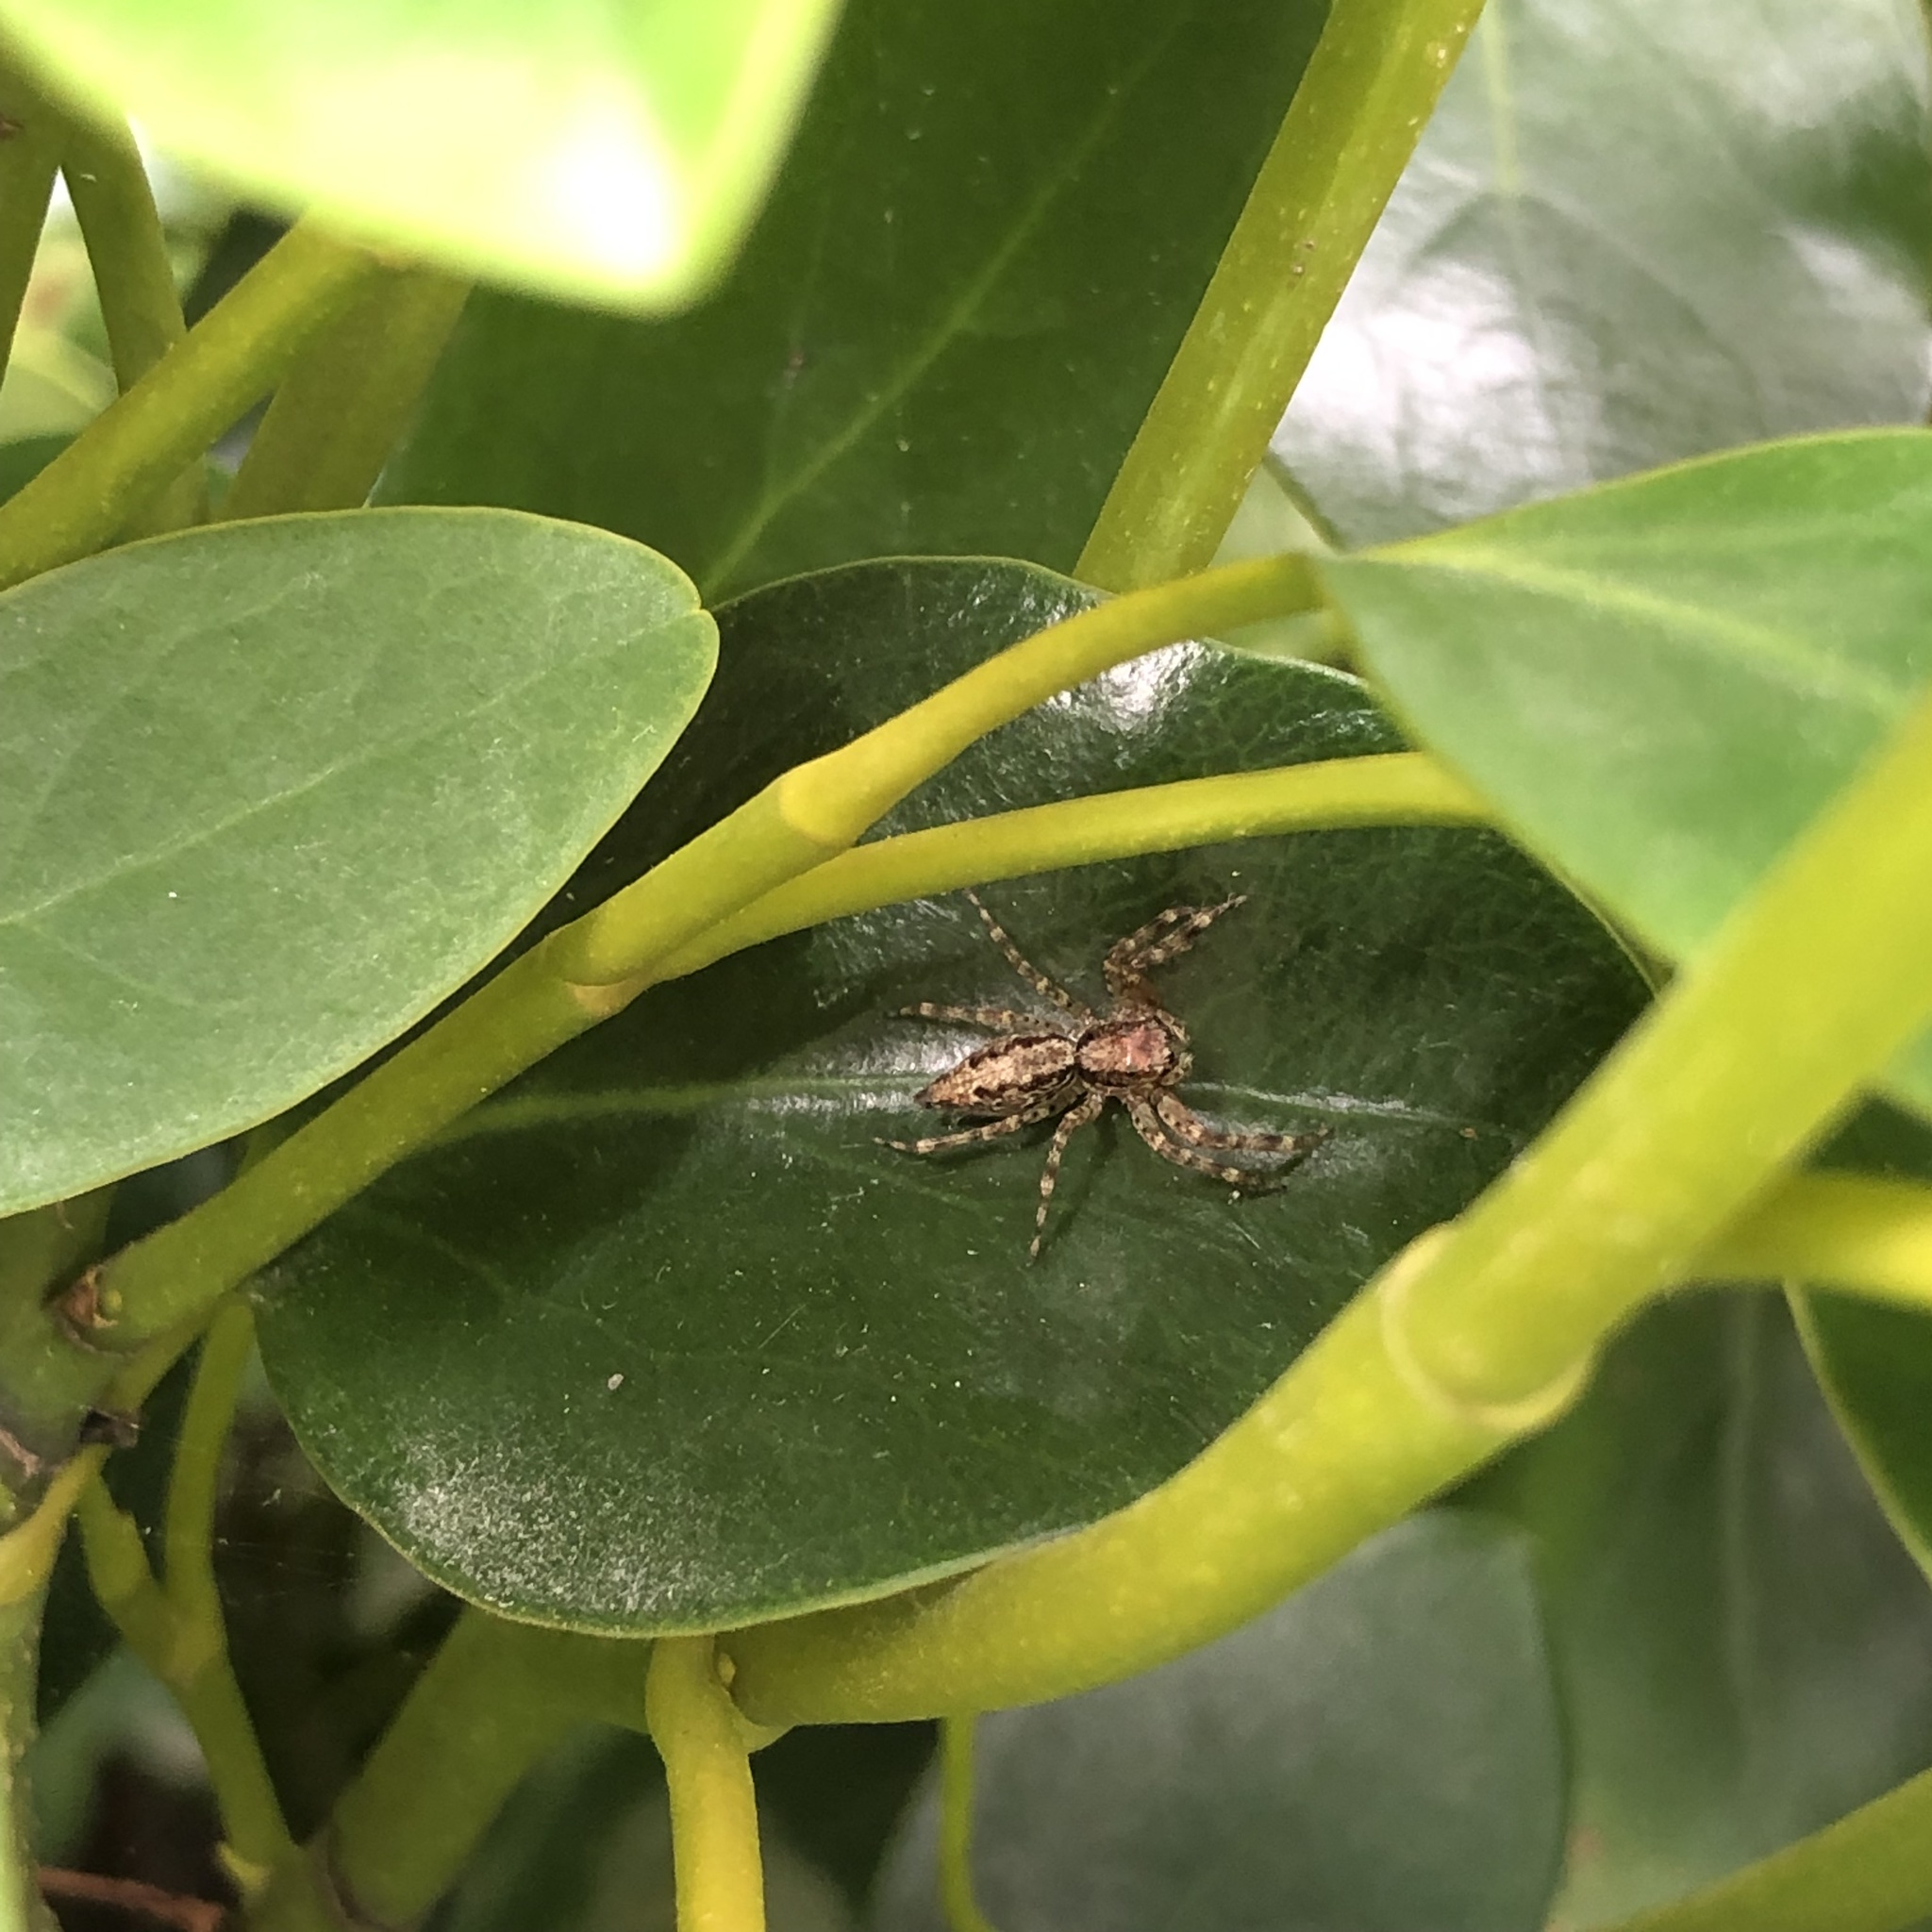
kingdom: Animalia
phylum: Arthropoda
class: Arachnida
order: Araneae
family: Salticidae
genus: Helpis
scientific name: Helpis minitabunda
